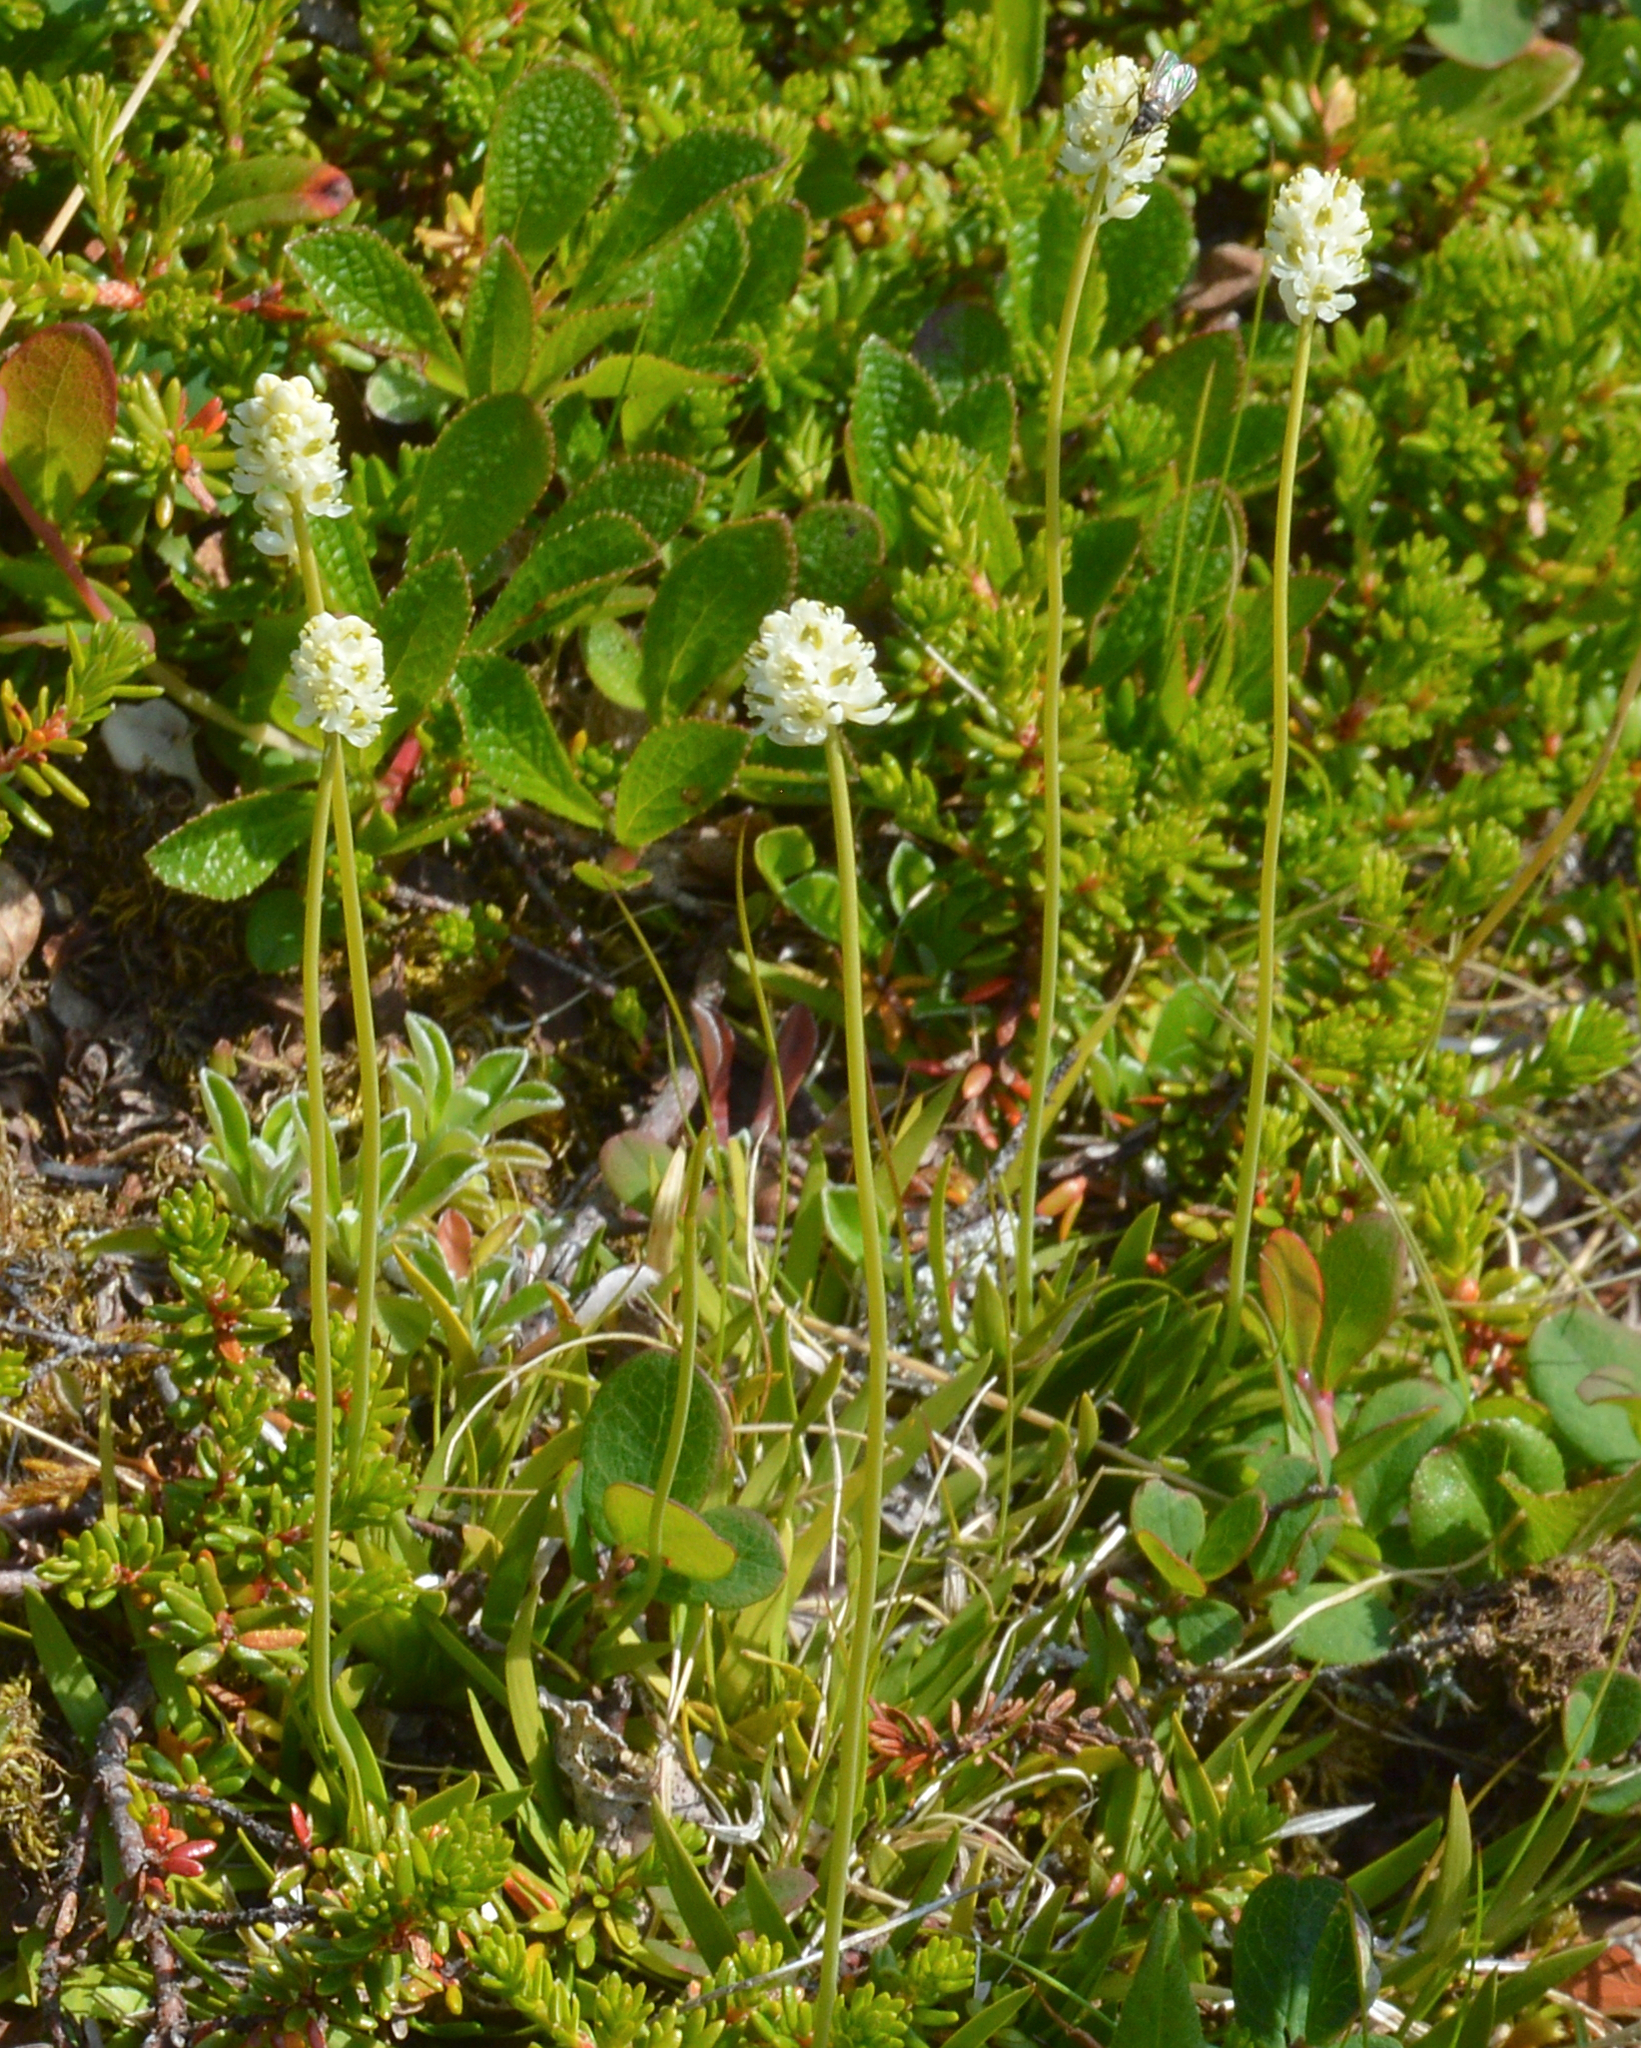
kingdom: Plantae
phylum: Tracheophyta
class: Liliopsida
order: Alismatales
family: Tofieldiaceae
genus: Tofieldia
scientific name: Tofieldia pusilla
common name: Scottish false asphodel
